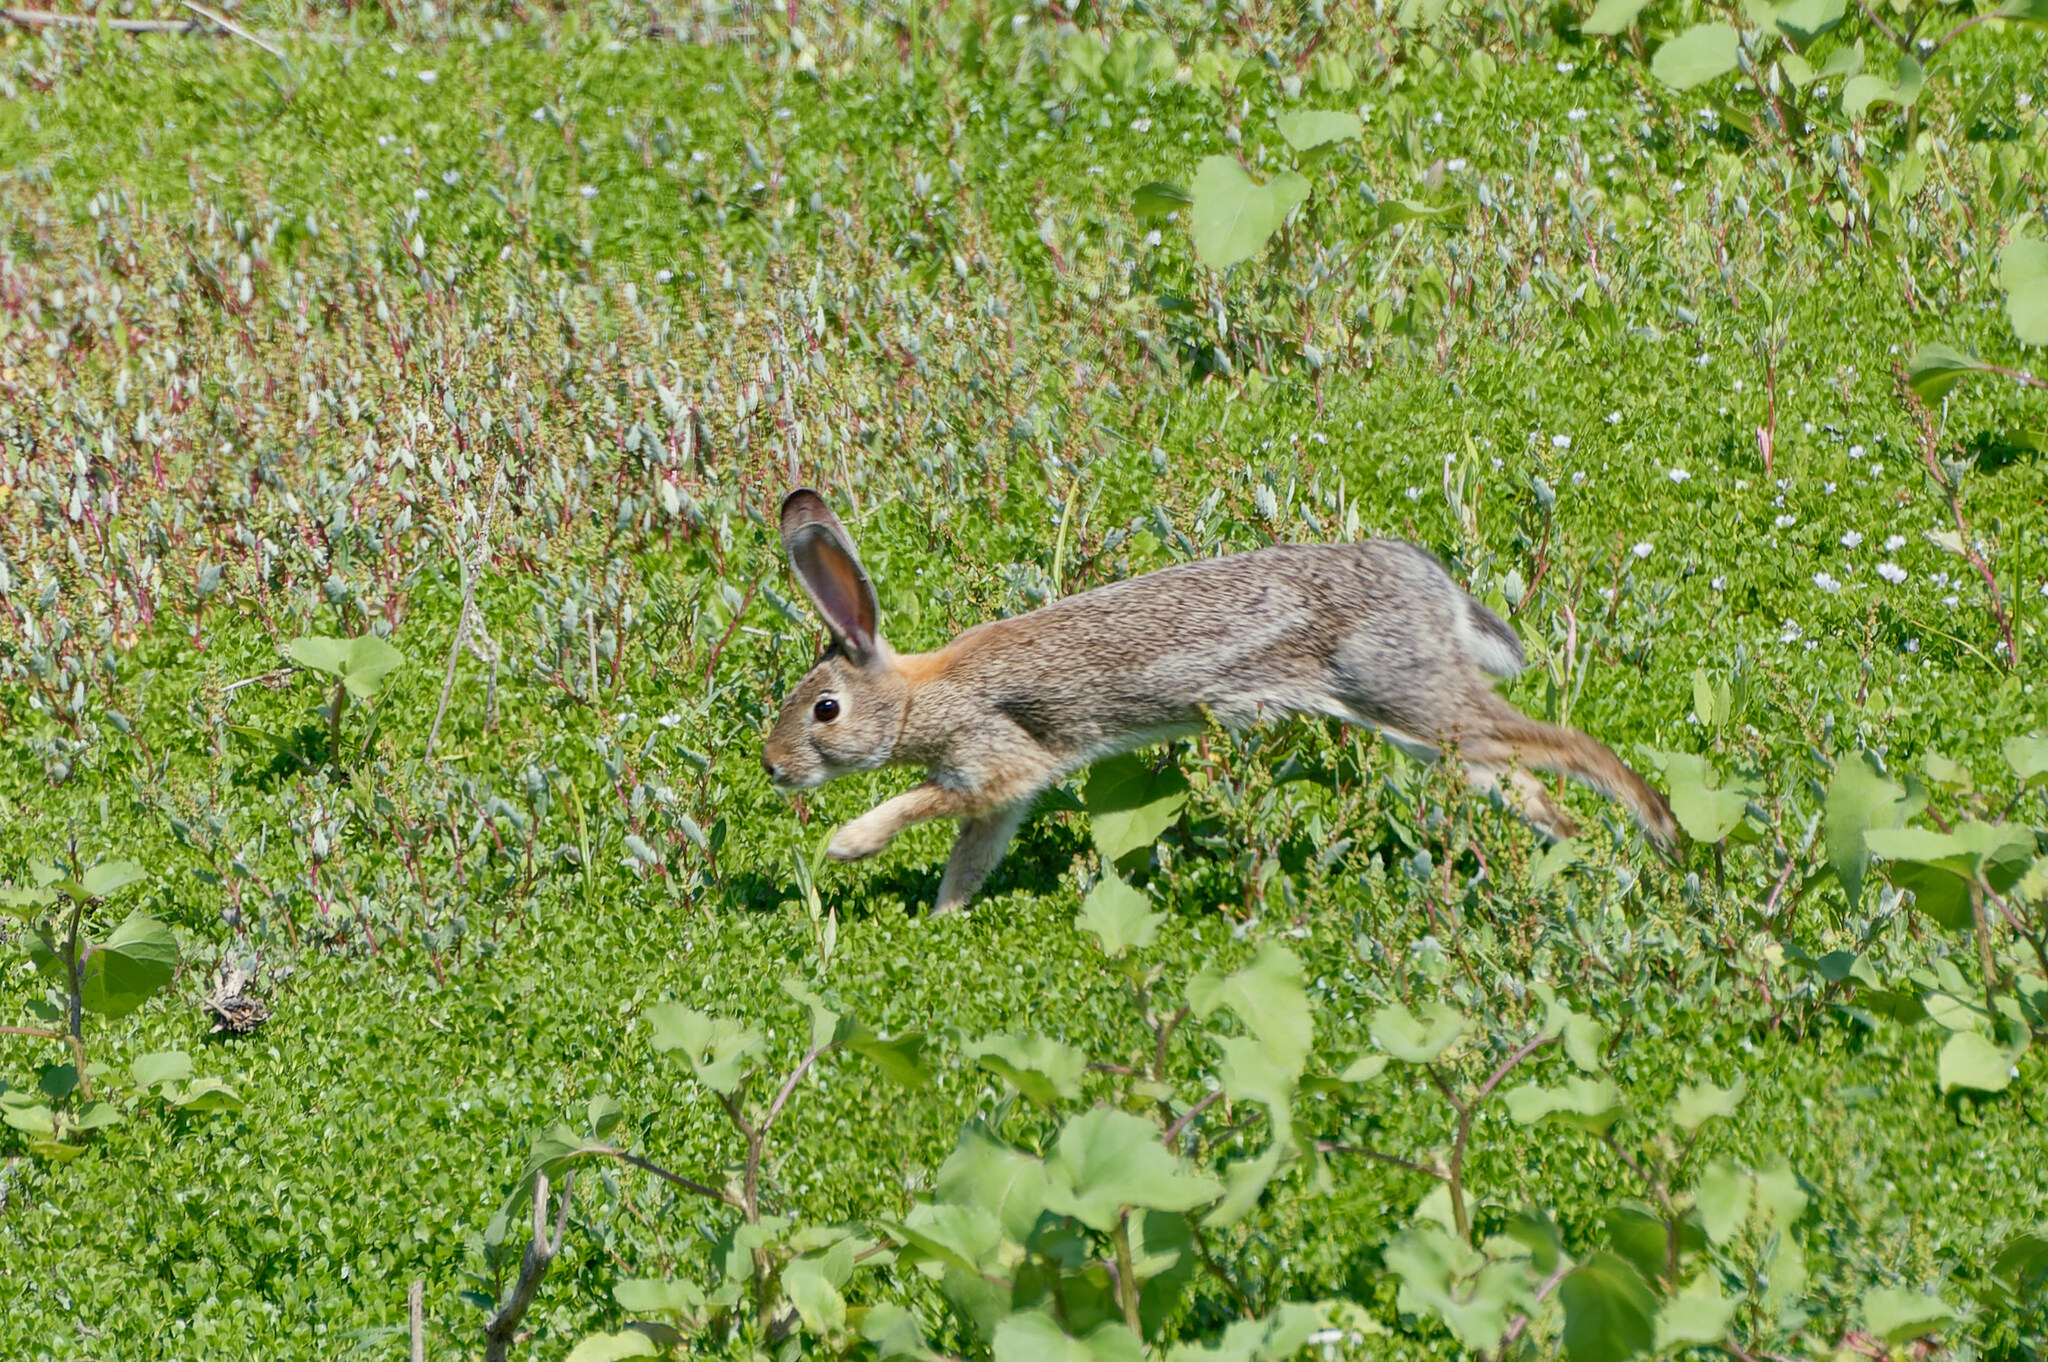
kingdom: Animalia
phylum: Chordata
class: Mammalia
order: Lagomorpha
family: Leporidae
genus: Sylvilagus
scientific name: Sylvilagus audubonii
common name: Desert cottontail
